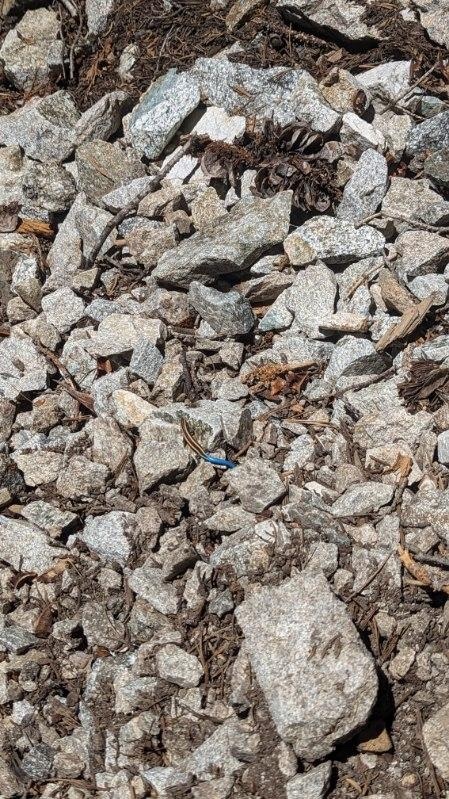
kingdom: Animalia
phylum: Chordata
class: Squamata
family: Scincidae
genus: Plestiodon
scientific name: Plestiodon skiltonianus
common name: Coronado island skink [interparietalis]
